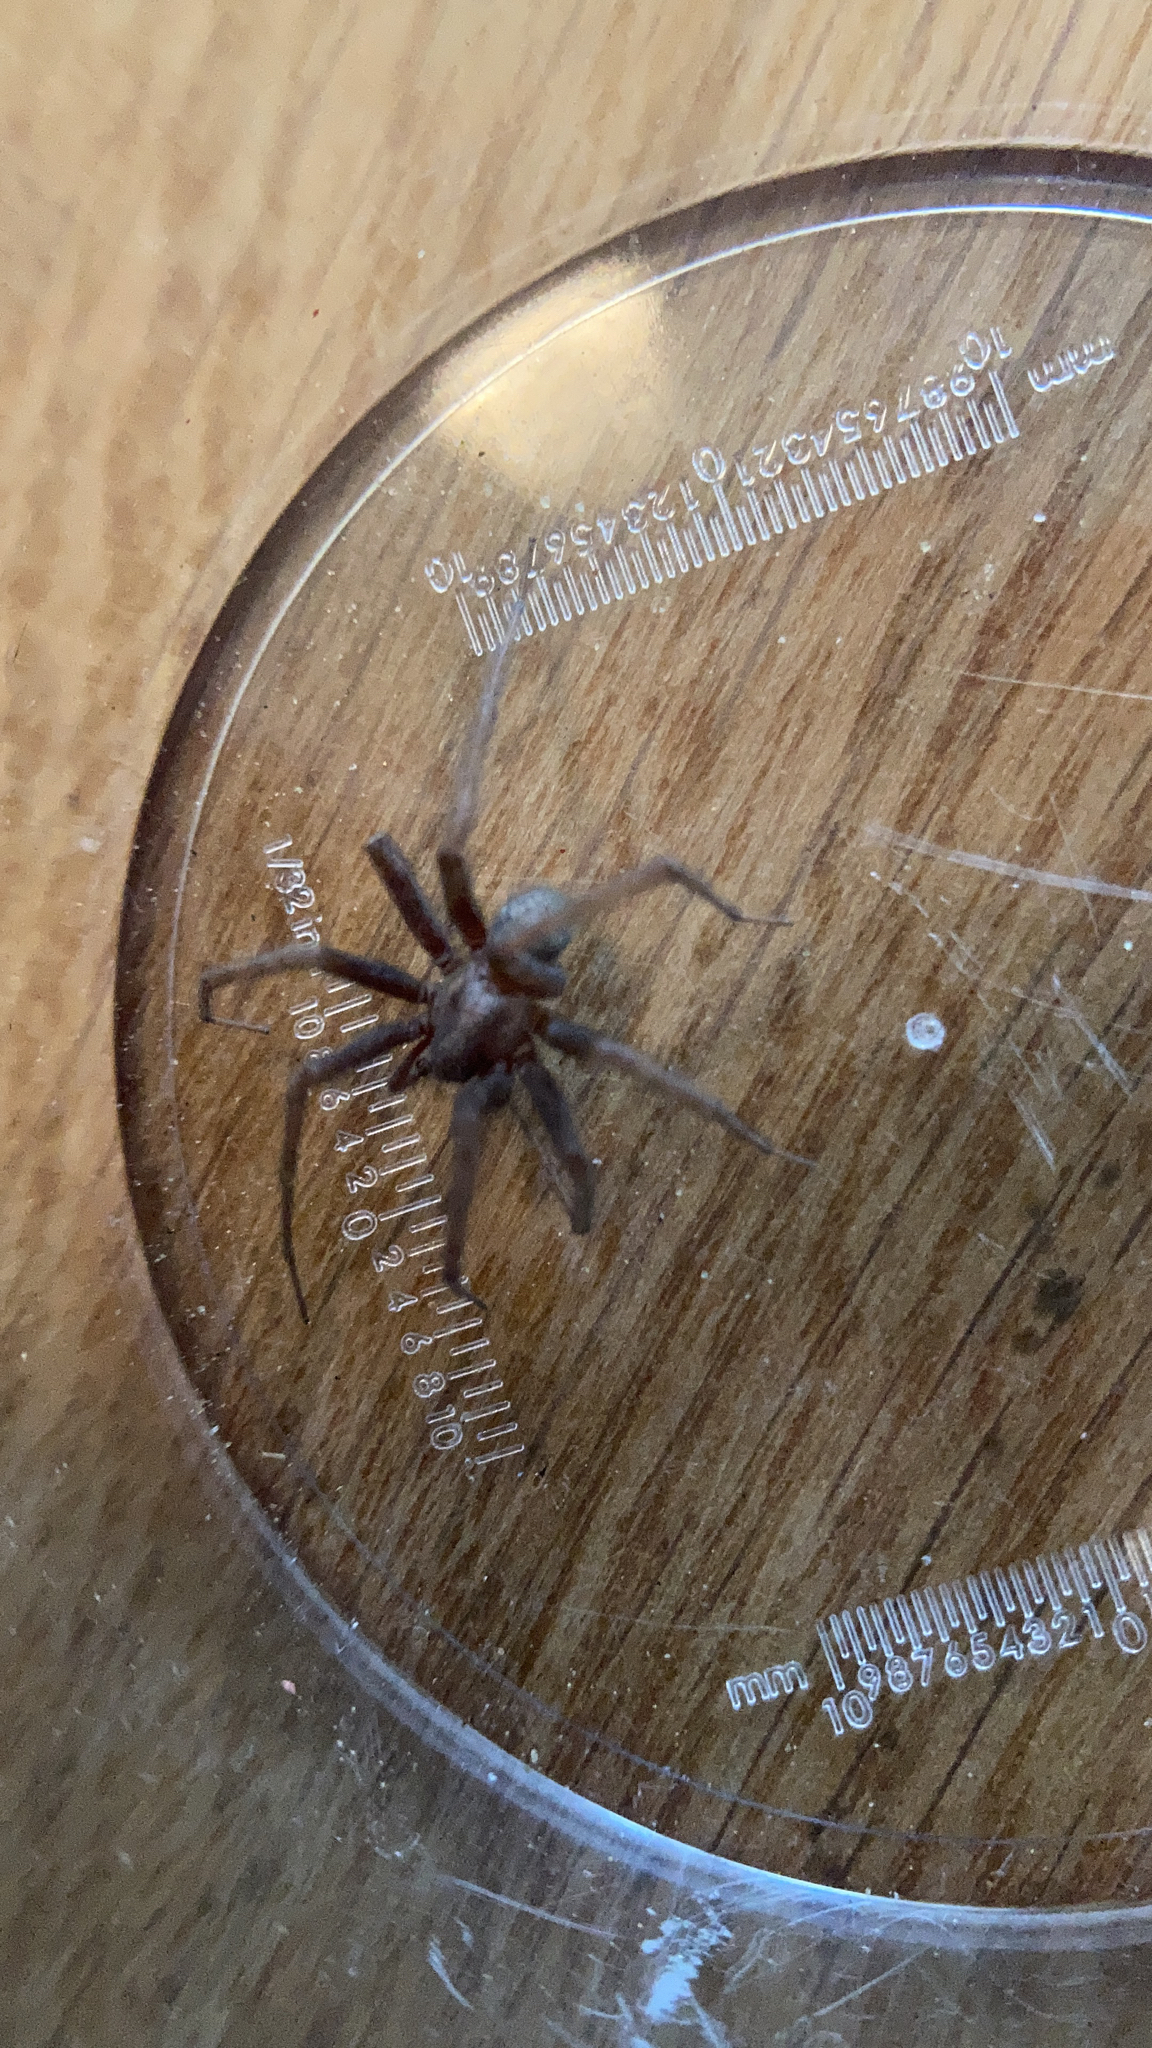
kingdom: Animalia
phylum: Arthropoda
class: Arachnida
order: Araneae
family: Agelenidae
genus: Eratigena
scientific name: Eratigena atrica
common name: Giant house spider
